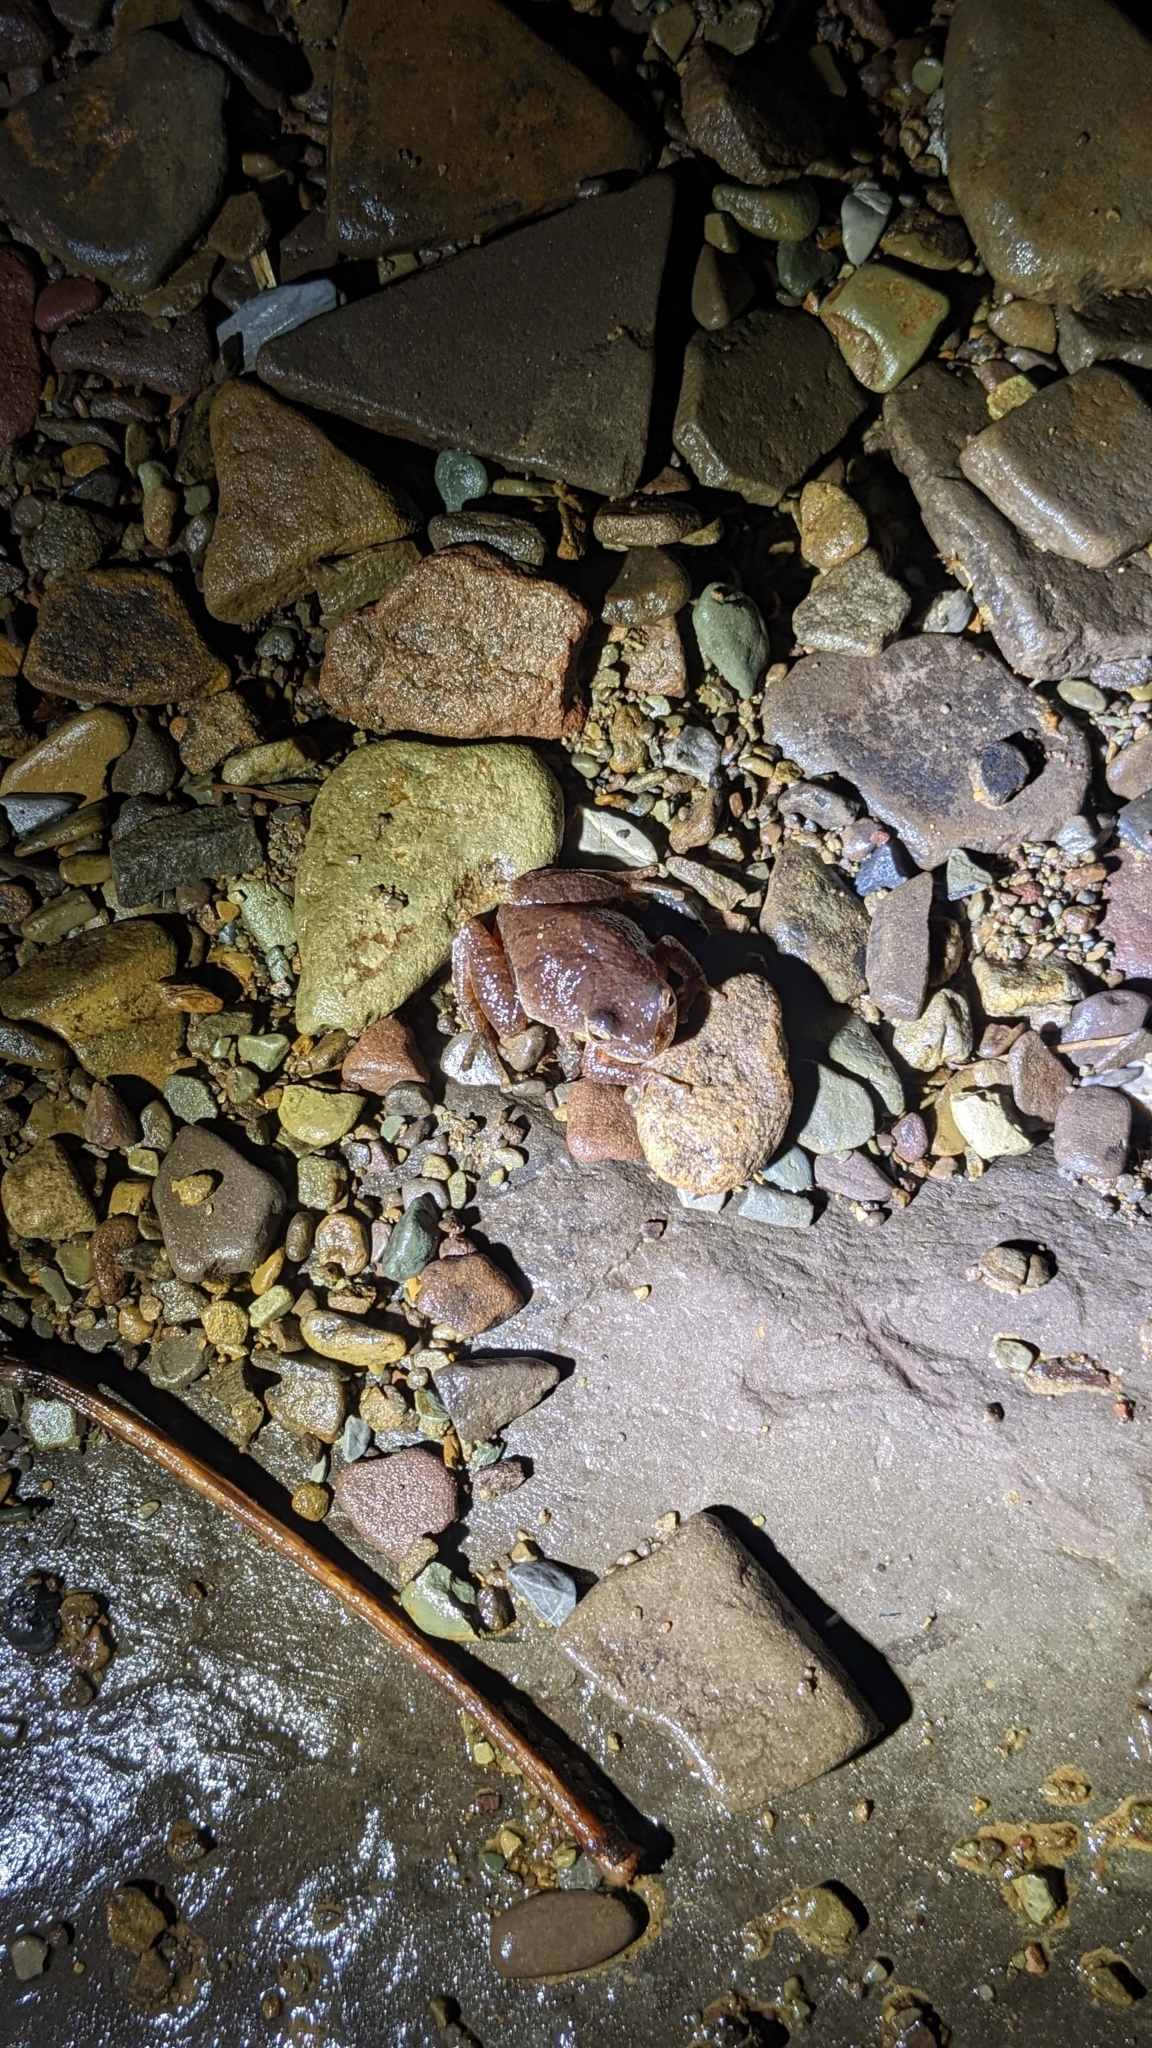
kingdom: Animalia
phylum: Chordata
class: Amphibia
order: Anura
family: Hylidae
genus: Pseudacris
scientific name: Pseudacris crucifer
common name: Spring peeper
